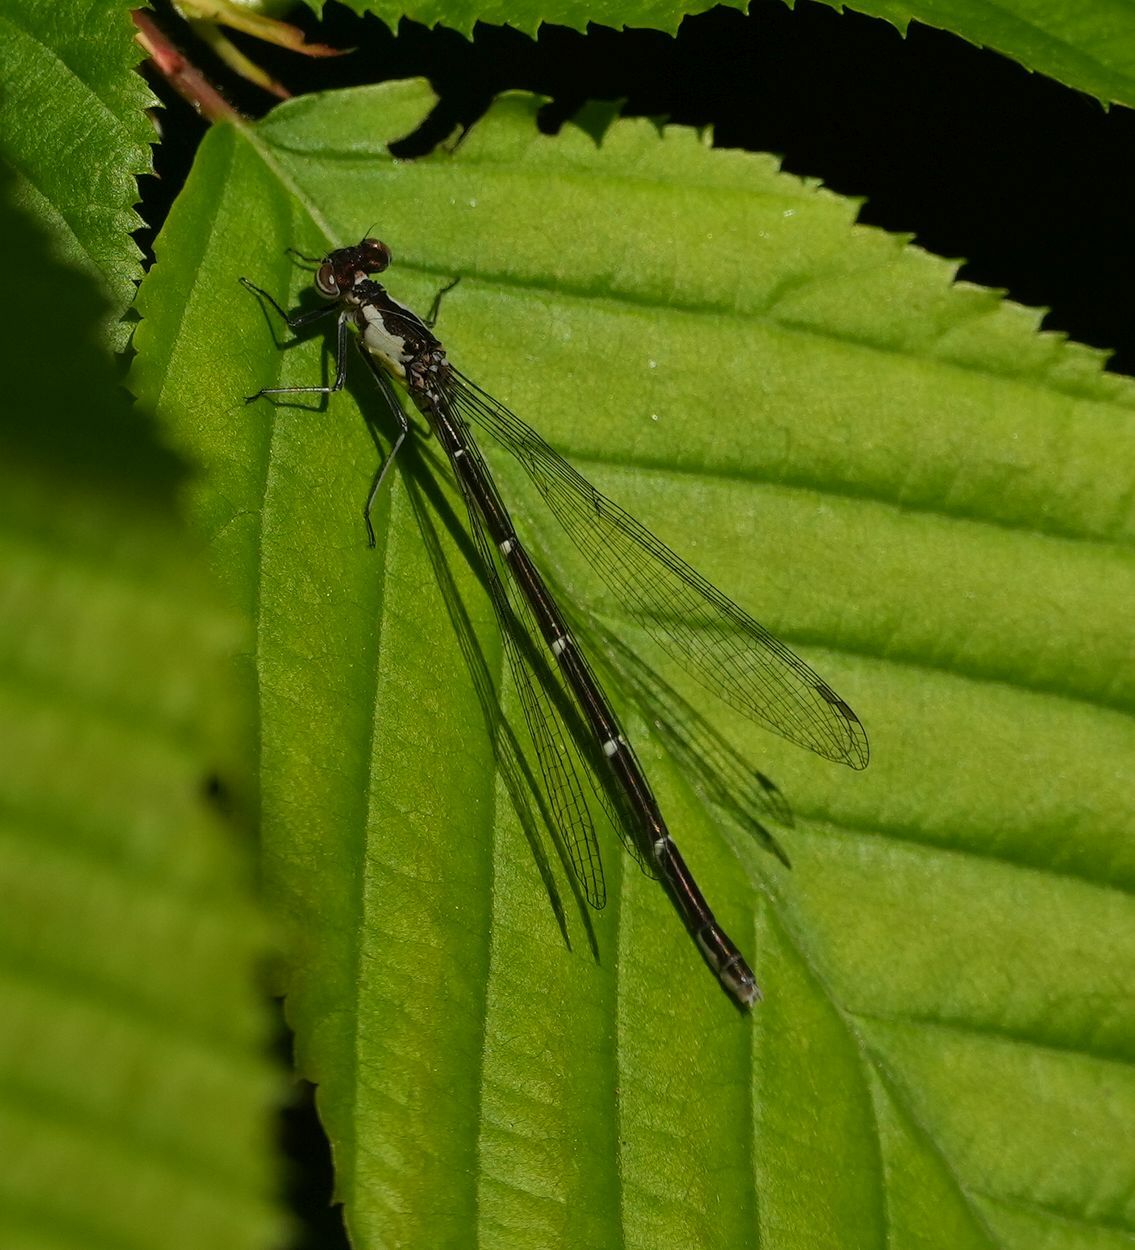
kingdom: Animalia
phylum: Arthropoda
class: Insecta
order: Odonata
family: Coenagrionidae
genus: Chromagrion
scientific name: Chromagrion conditum
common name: Aurora damsel
